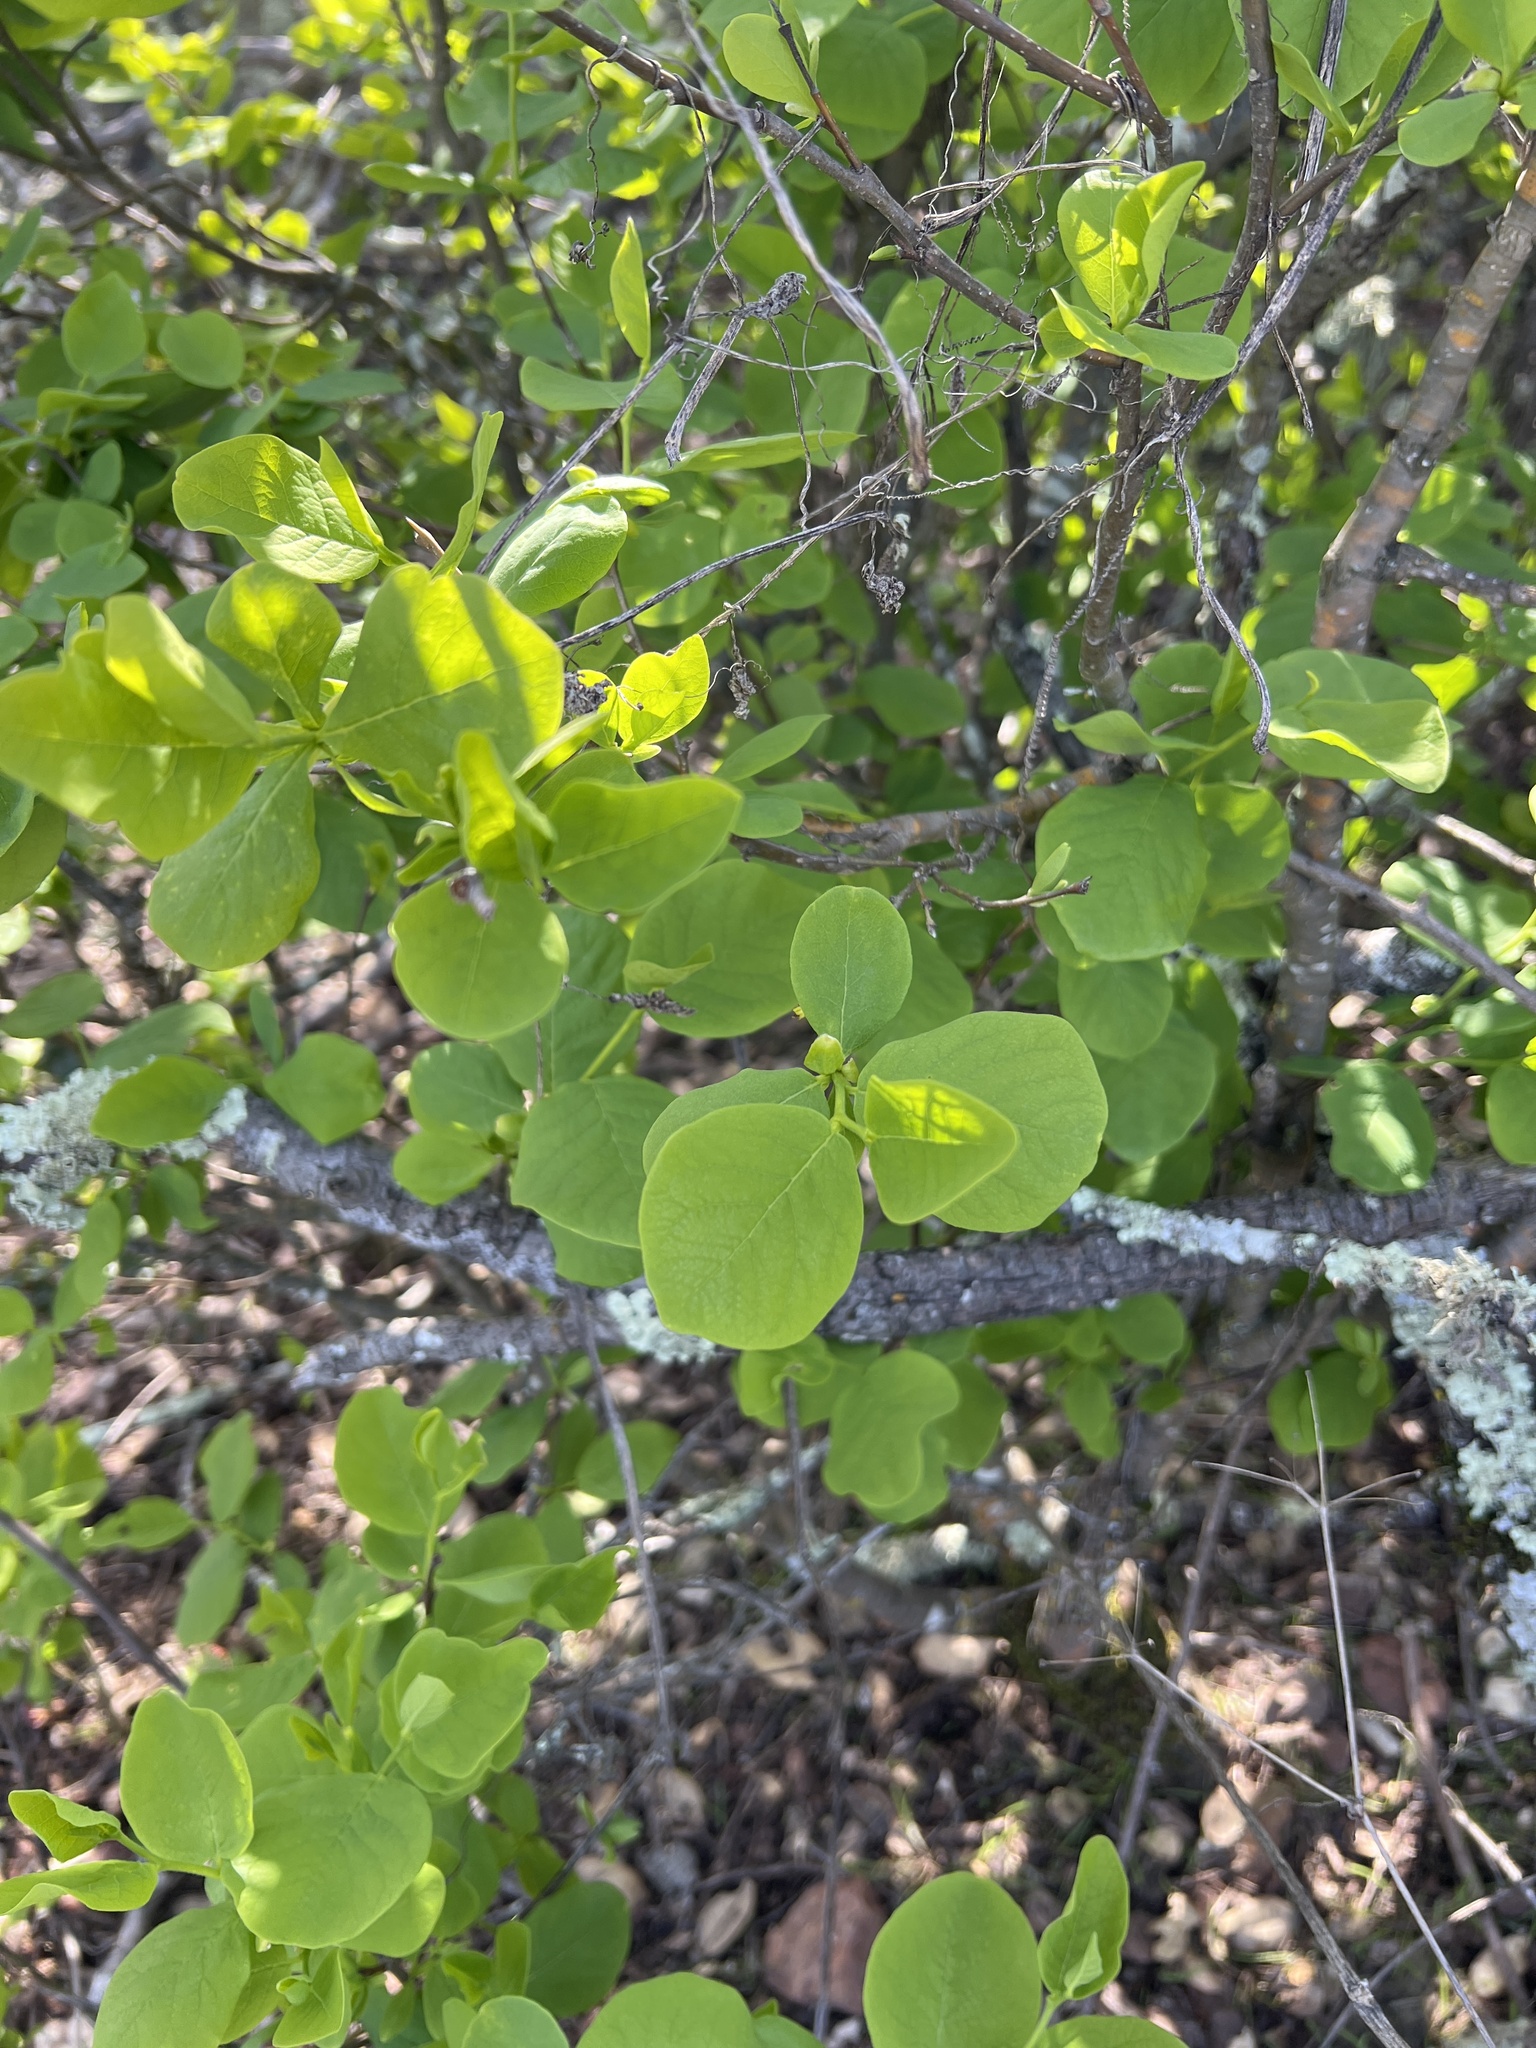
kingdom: Plantae
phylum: Tracheophyta
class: Magnoliopsida
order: Malvales
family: Thymelaeaceae
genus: Dirca
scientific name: Dirca occidentalis
